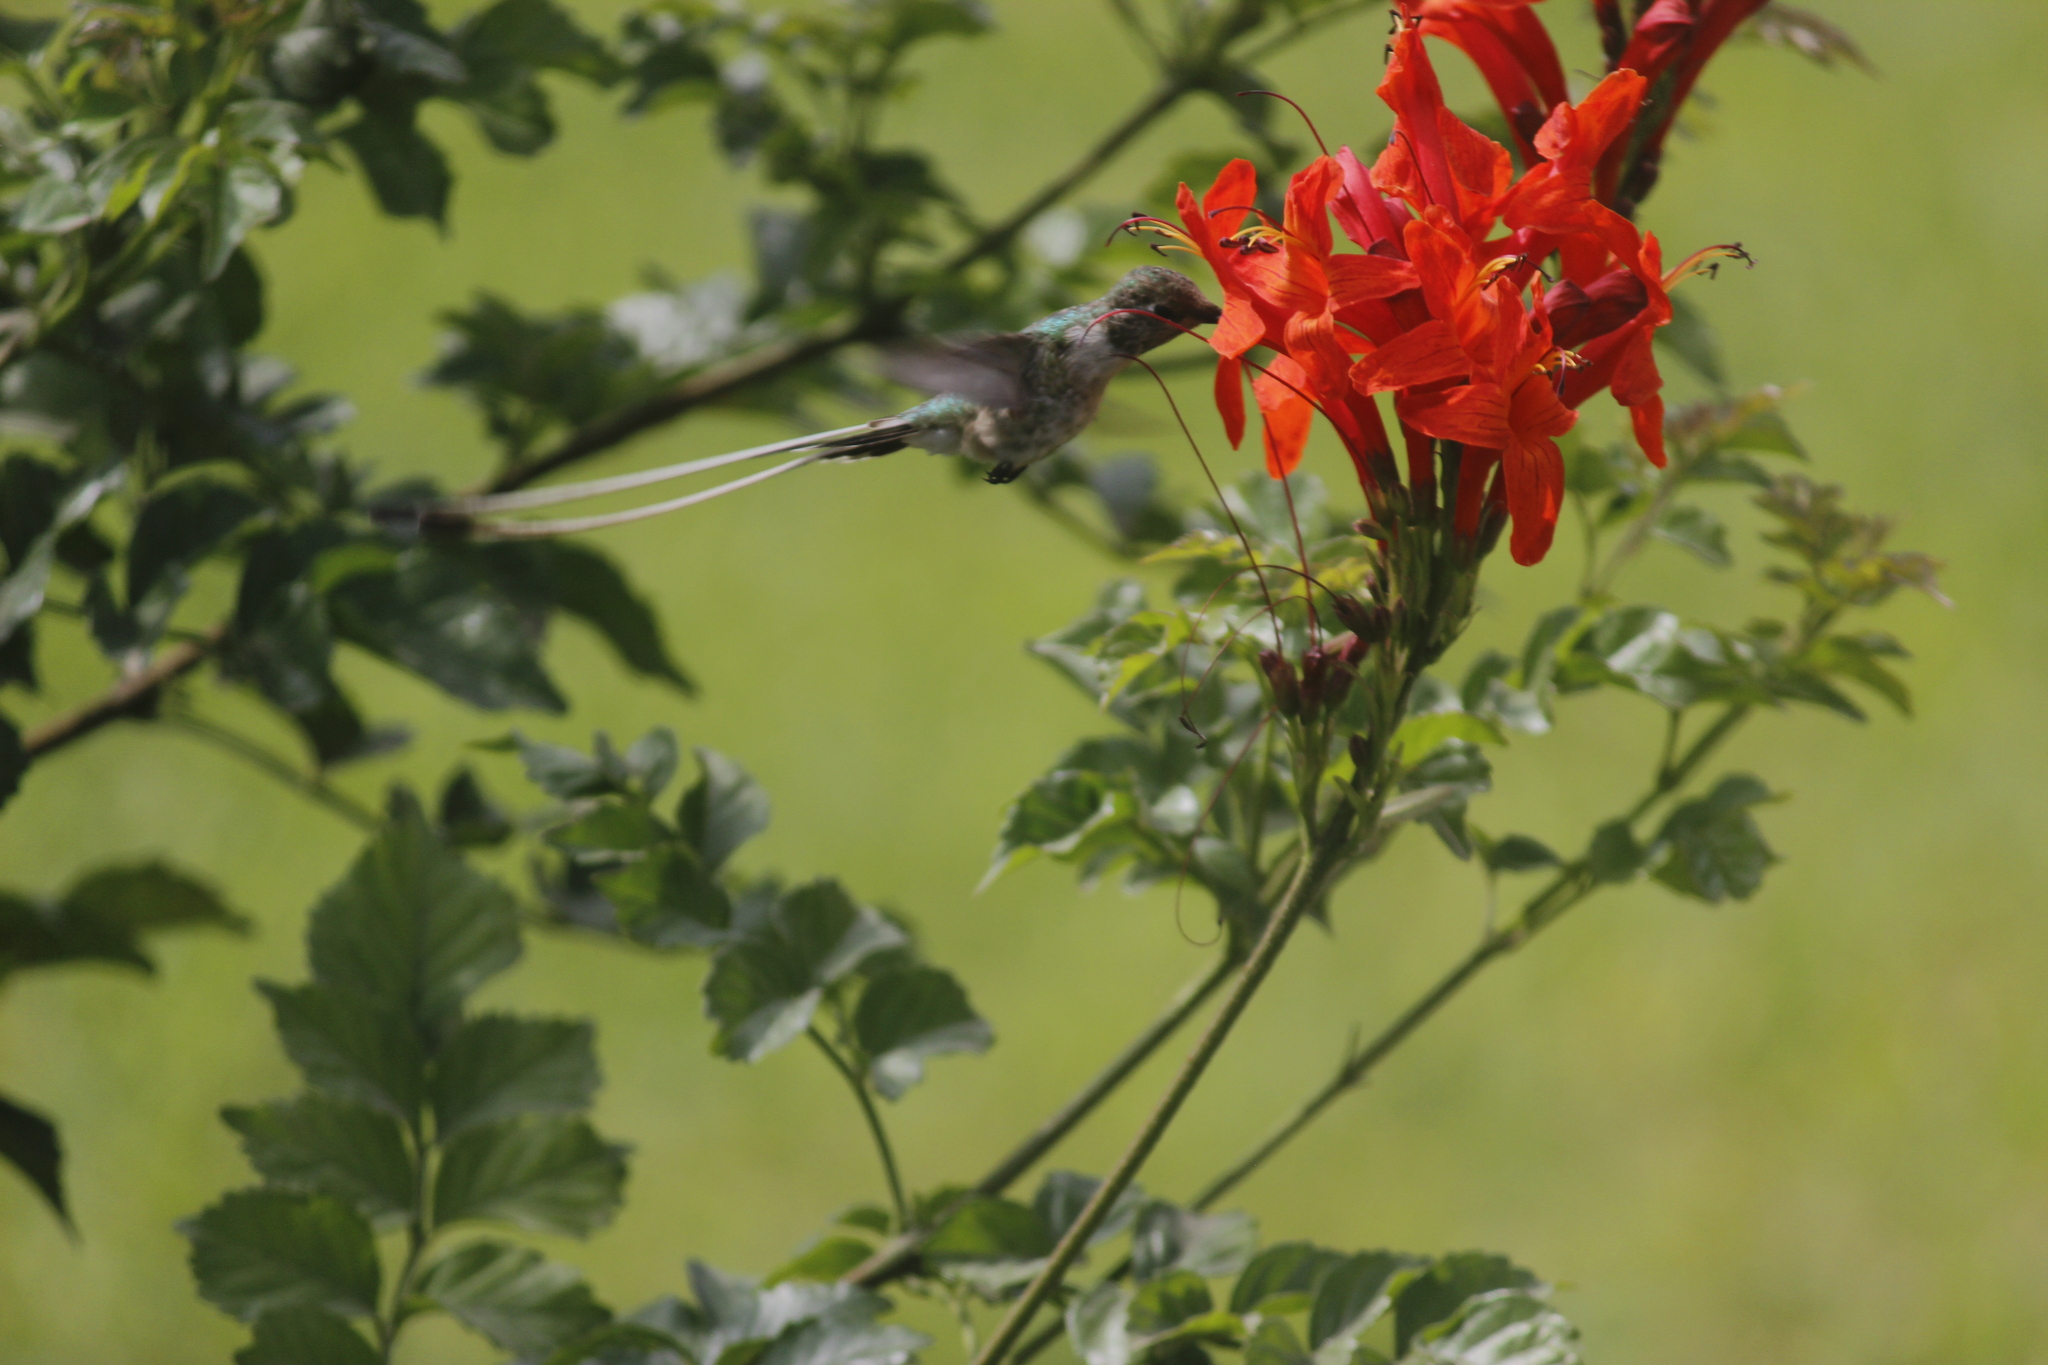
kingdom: Animalia
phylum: Chordata
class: Aves
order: Apodiformes
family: Trochilidae
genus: Thaumastura
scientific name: Thaumastura cora
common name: Peruvian sheartail
